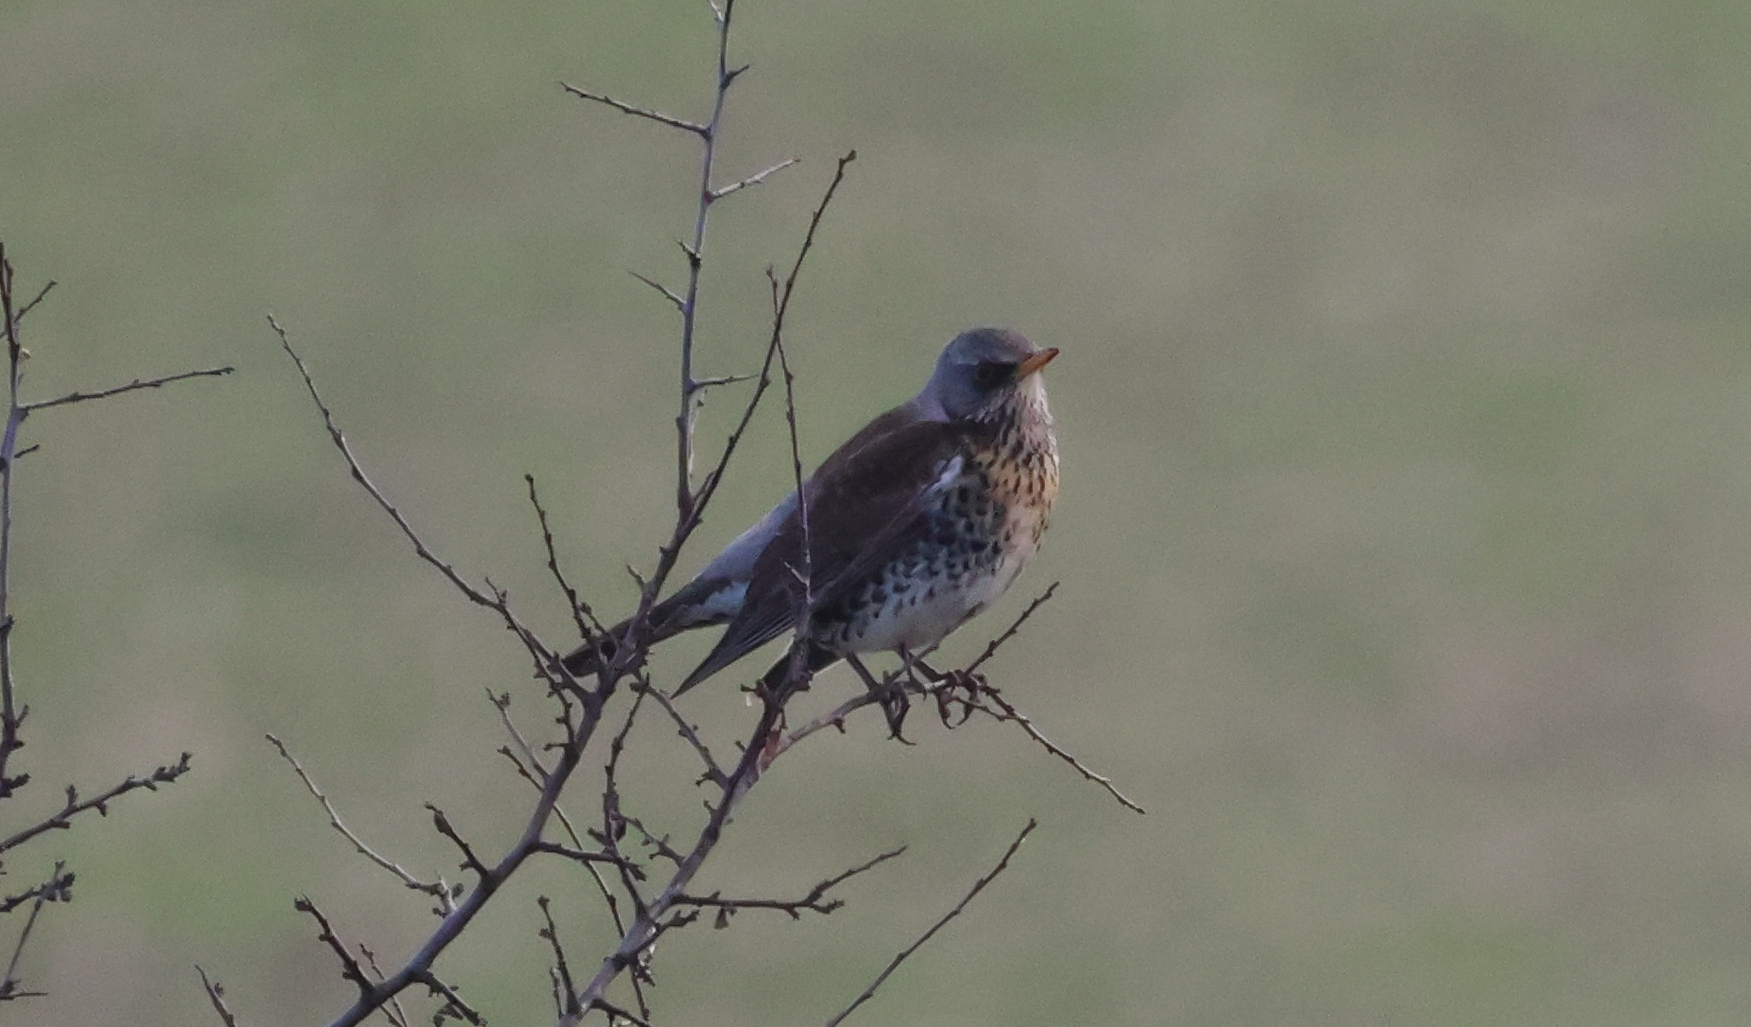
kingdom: Animalia
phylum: Chordata
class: Aves
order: Passeriformes
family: Turdidae
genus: Turdus
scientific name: Turdus pilaris
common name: Fieldfare
